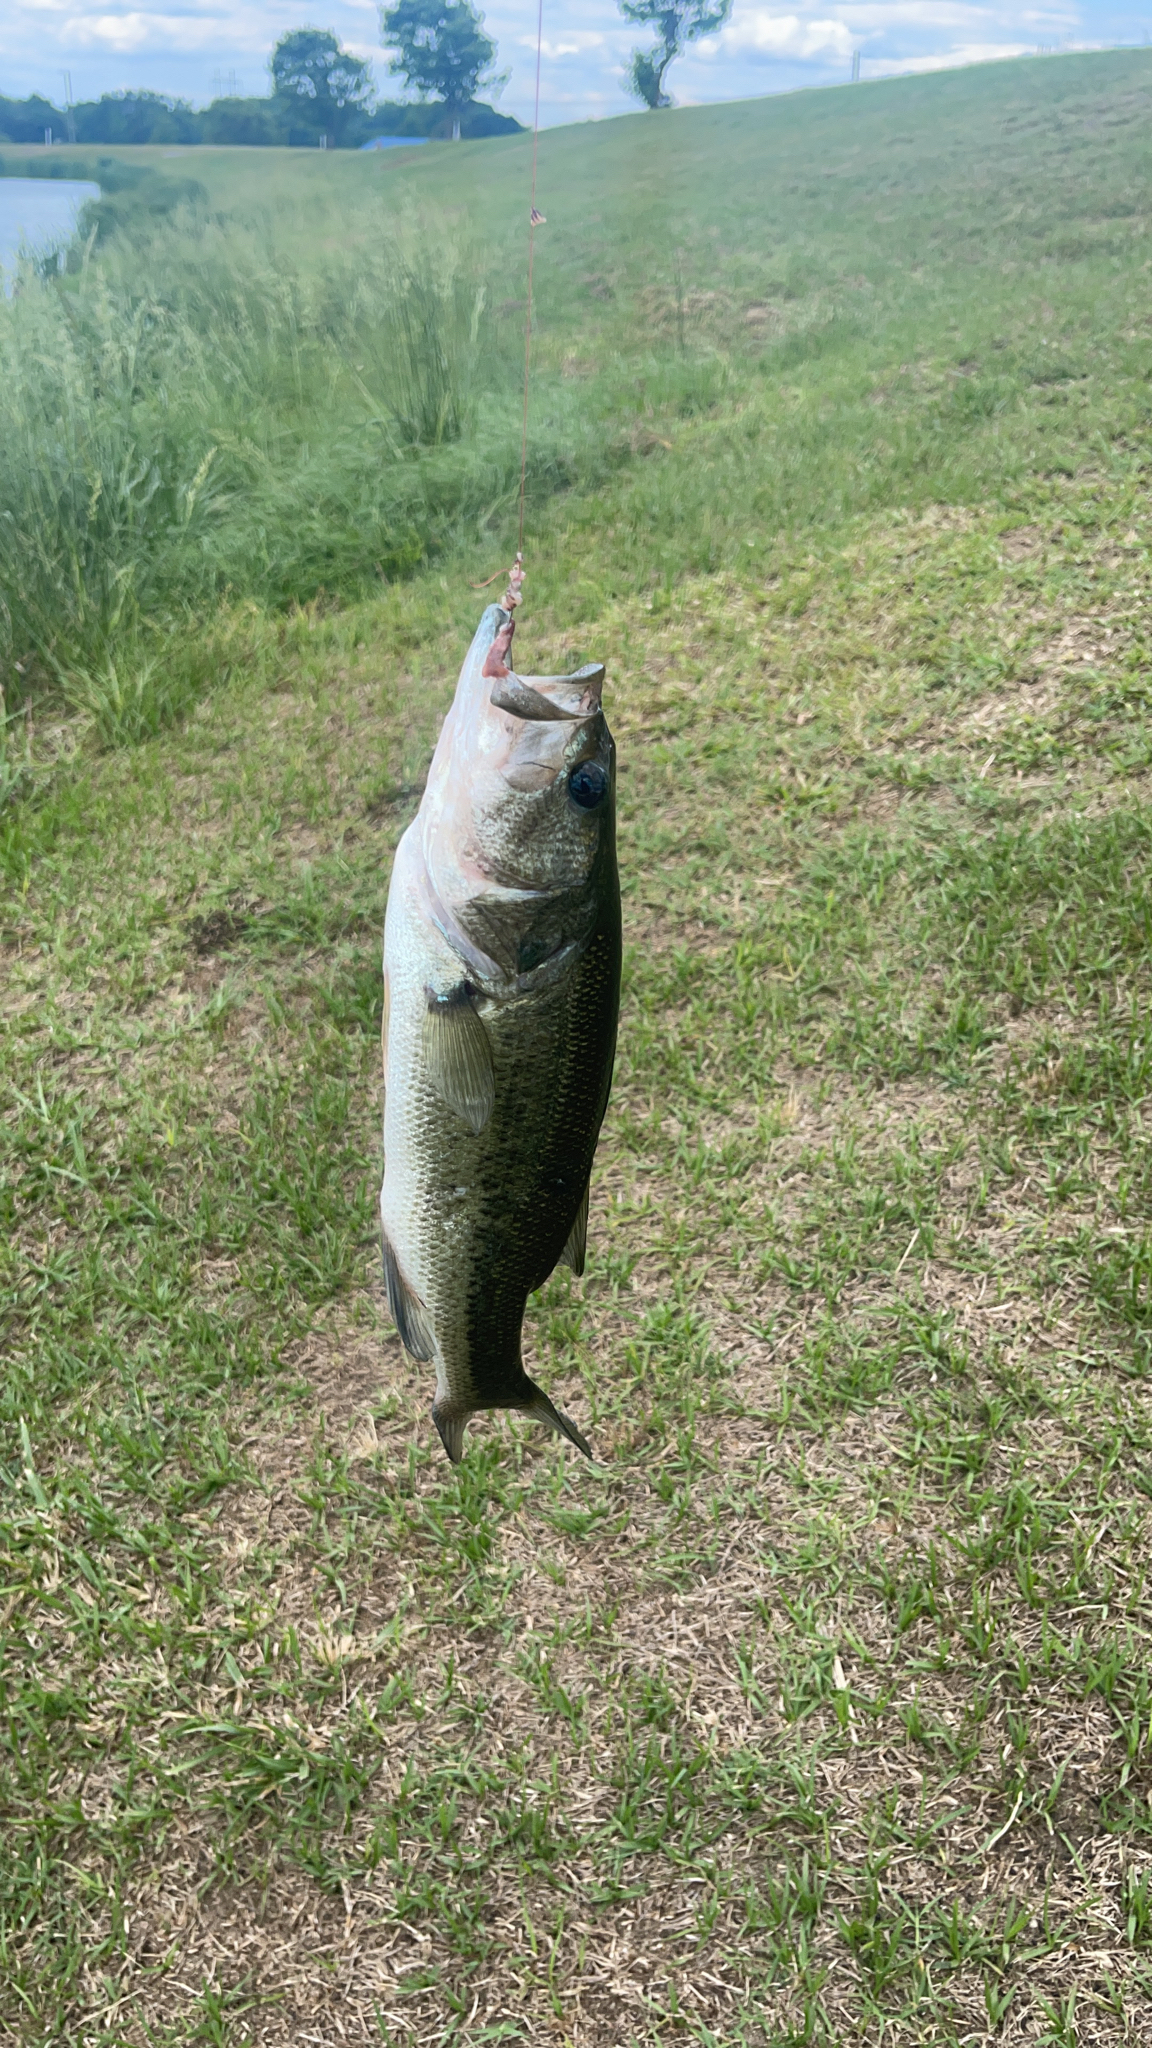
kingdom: Animalia
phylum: Chordata
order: Perciformes
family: Centrarchidae
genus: Micropterus
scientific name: Micropterus salmoides
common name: Largemouth bass
